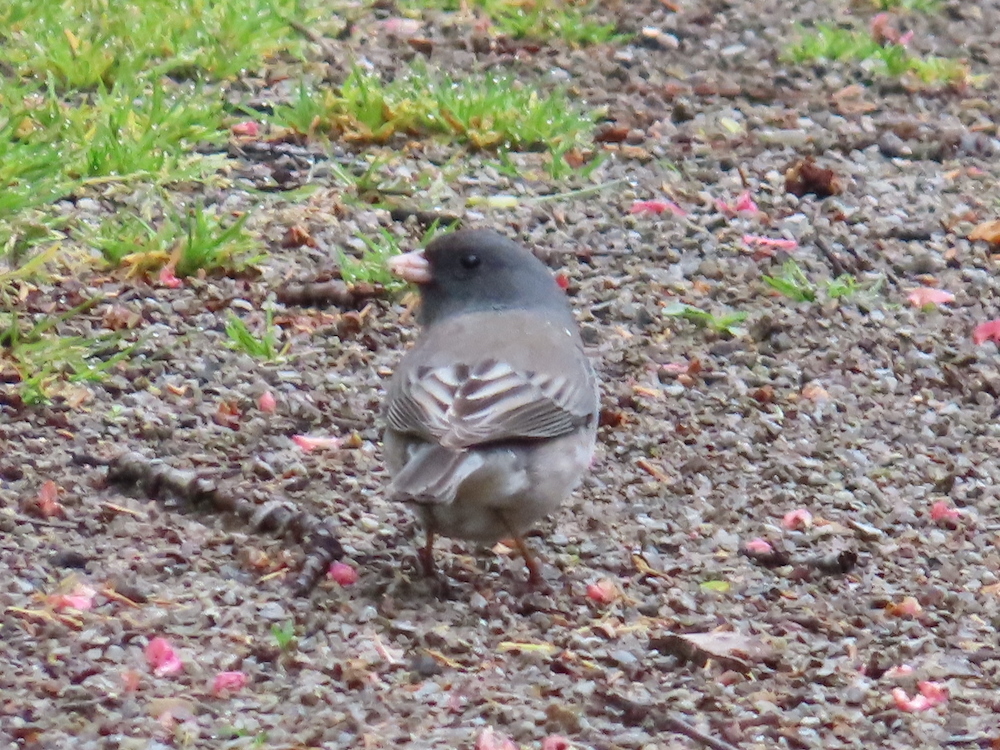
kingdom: Animalia
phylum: Chordata
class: Aves
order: Passeriformes
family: Passerellidae
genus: Junco
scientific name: Junco hyemalis
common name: Dark-eyed junco
